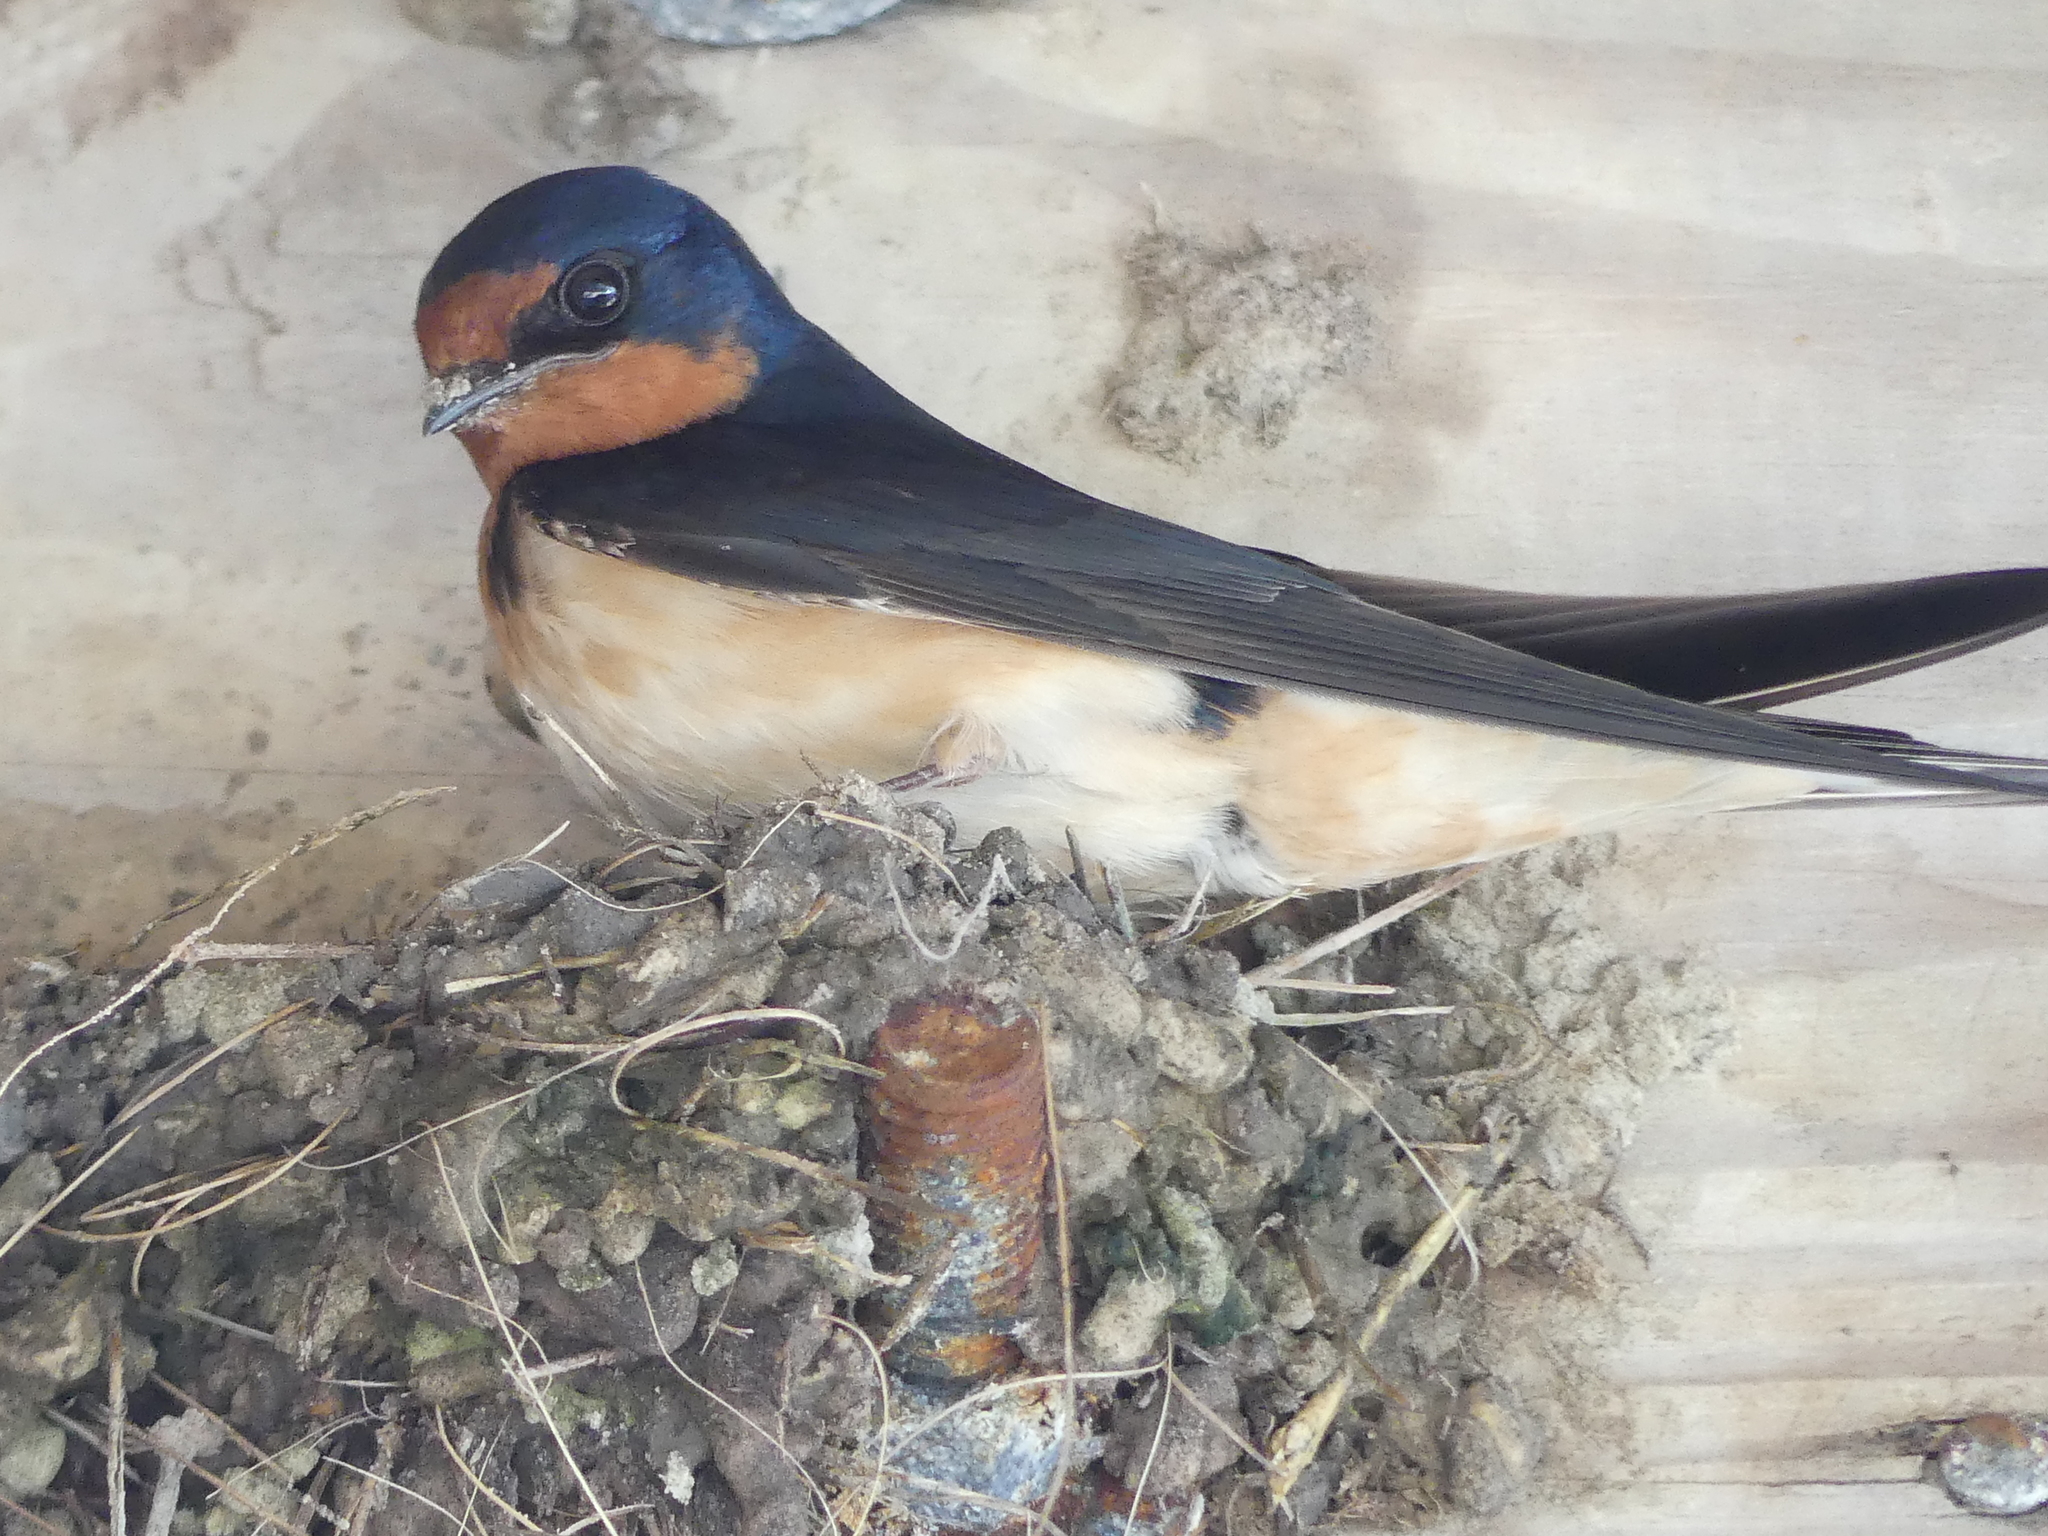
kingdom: Animalia
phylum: Chordata
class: Aves
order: Passeriformes
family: Hirundinidae
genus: Hirundo
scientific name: Hirundo rustica
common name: Barn swallow
